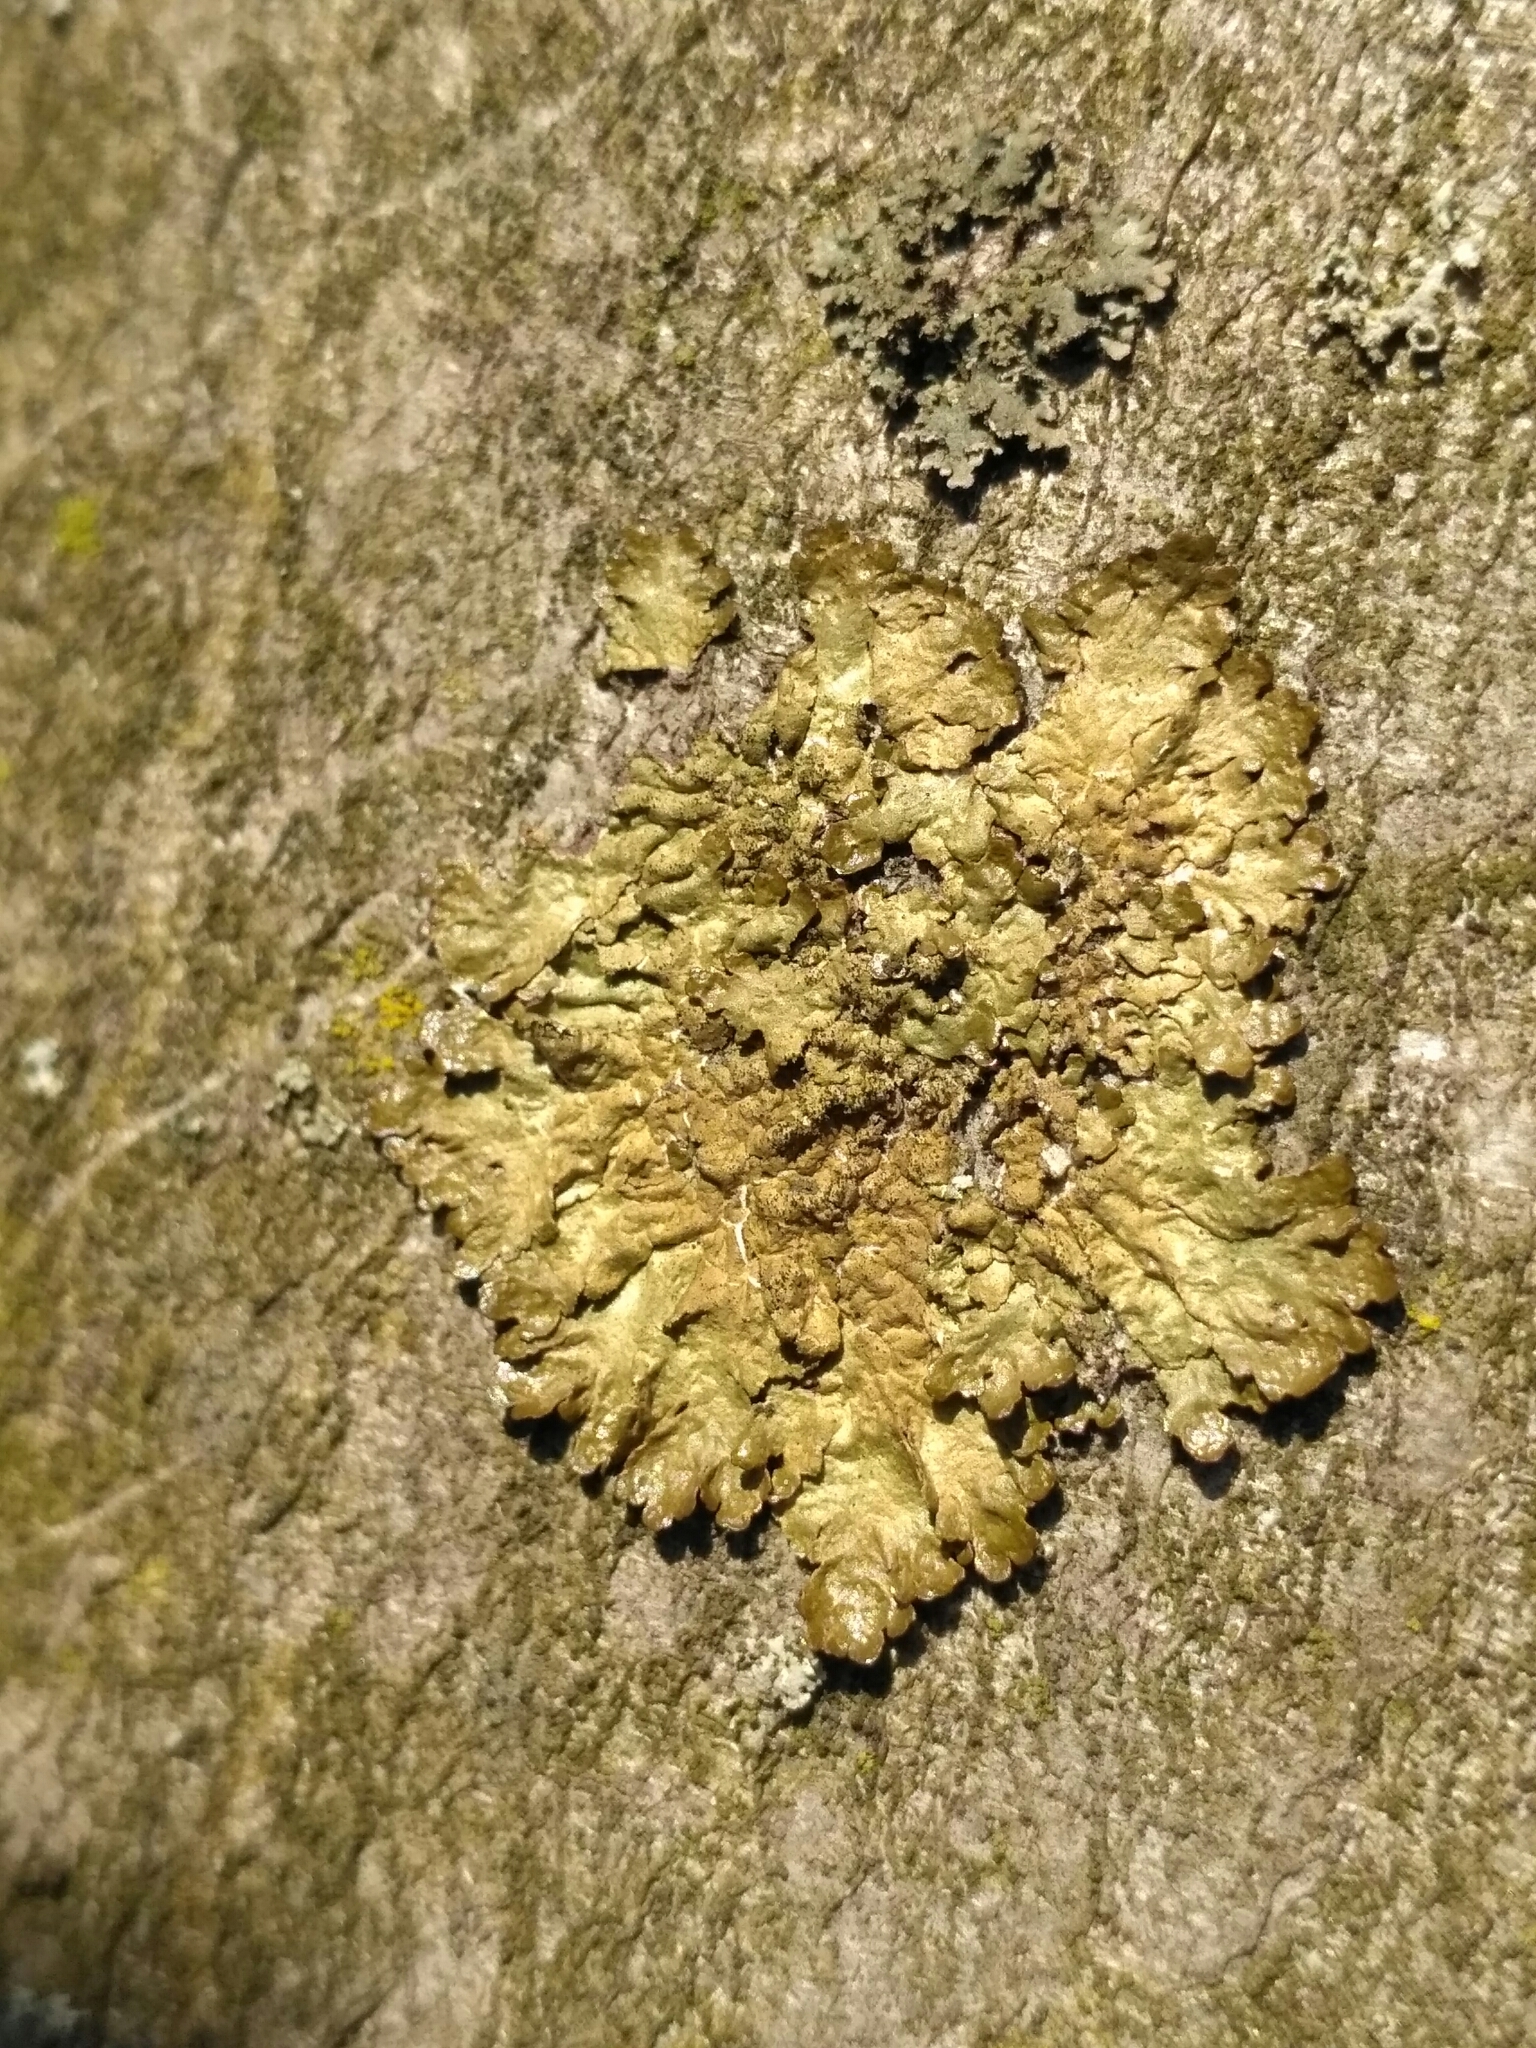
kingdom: Fungi
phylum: Ascomycota
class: Lecanoromycetes
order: Lecanorales
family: Parmeliaceae
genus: Melanelixia
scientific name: Melanelixia glabratula
